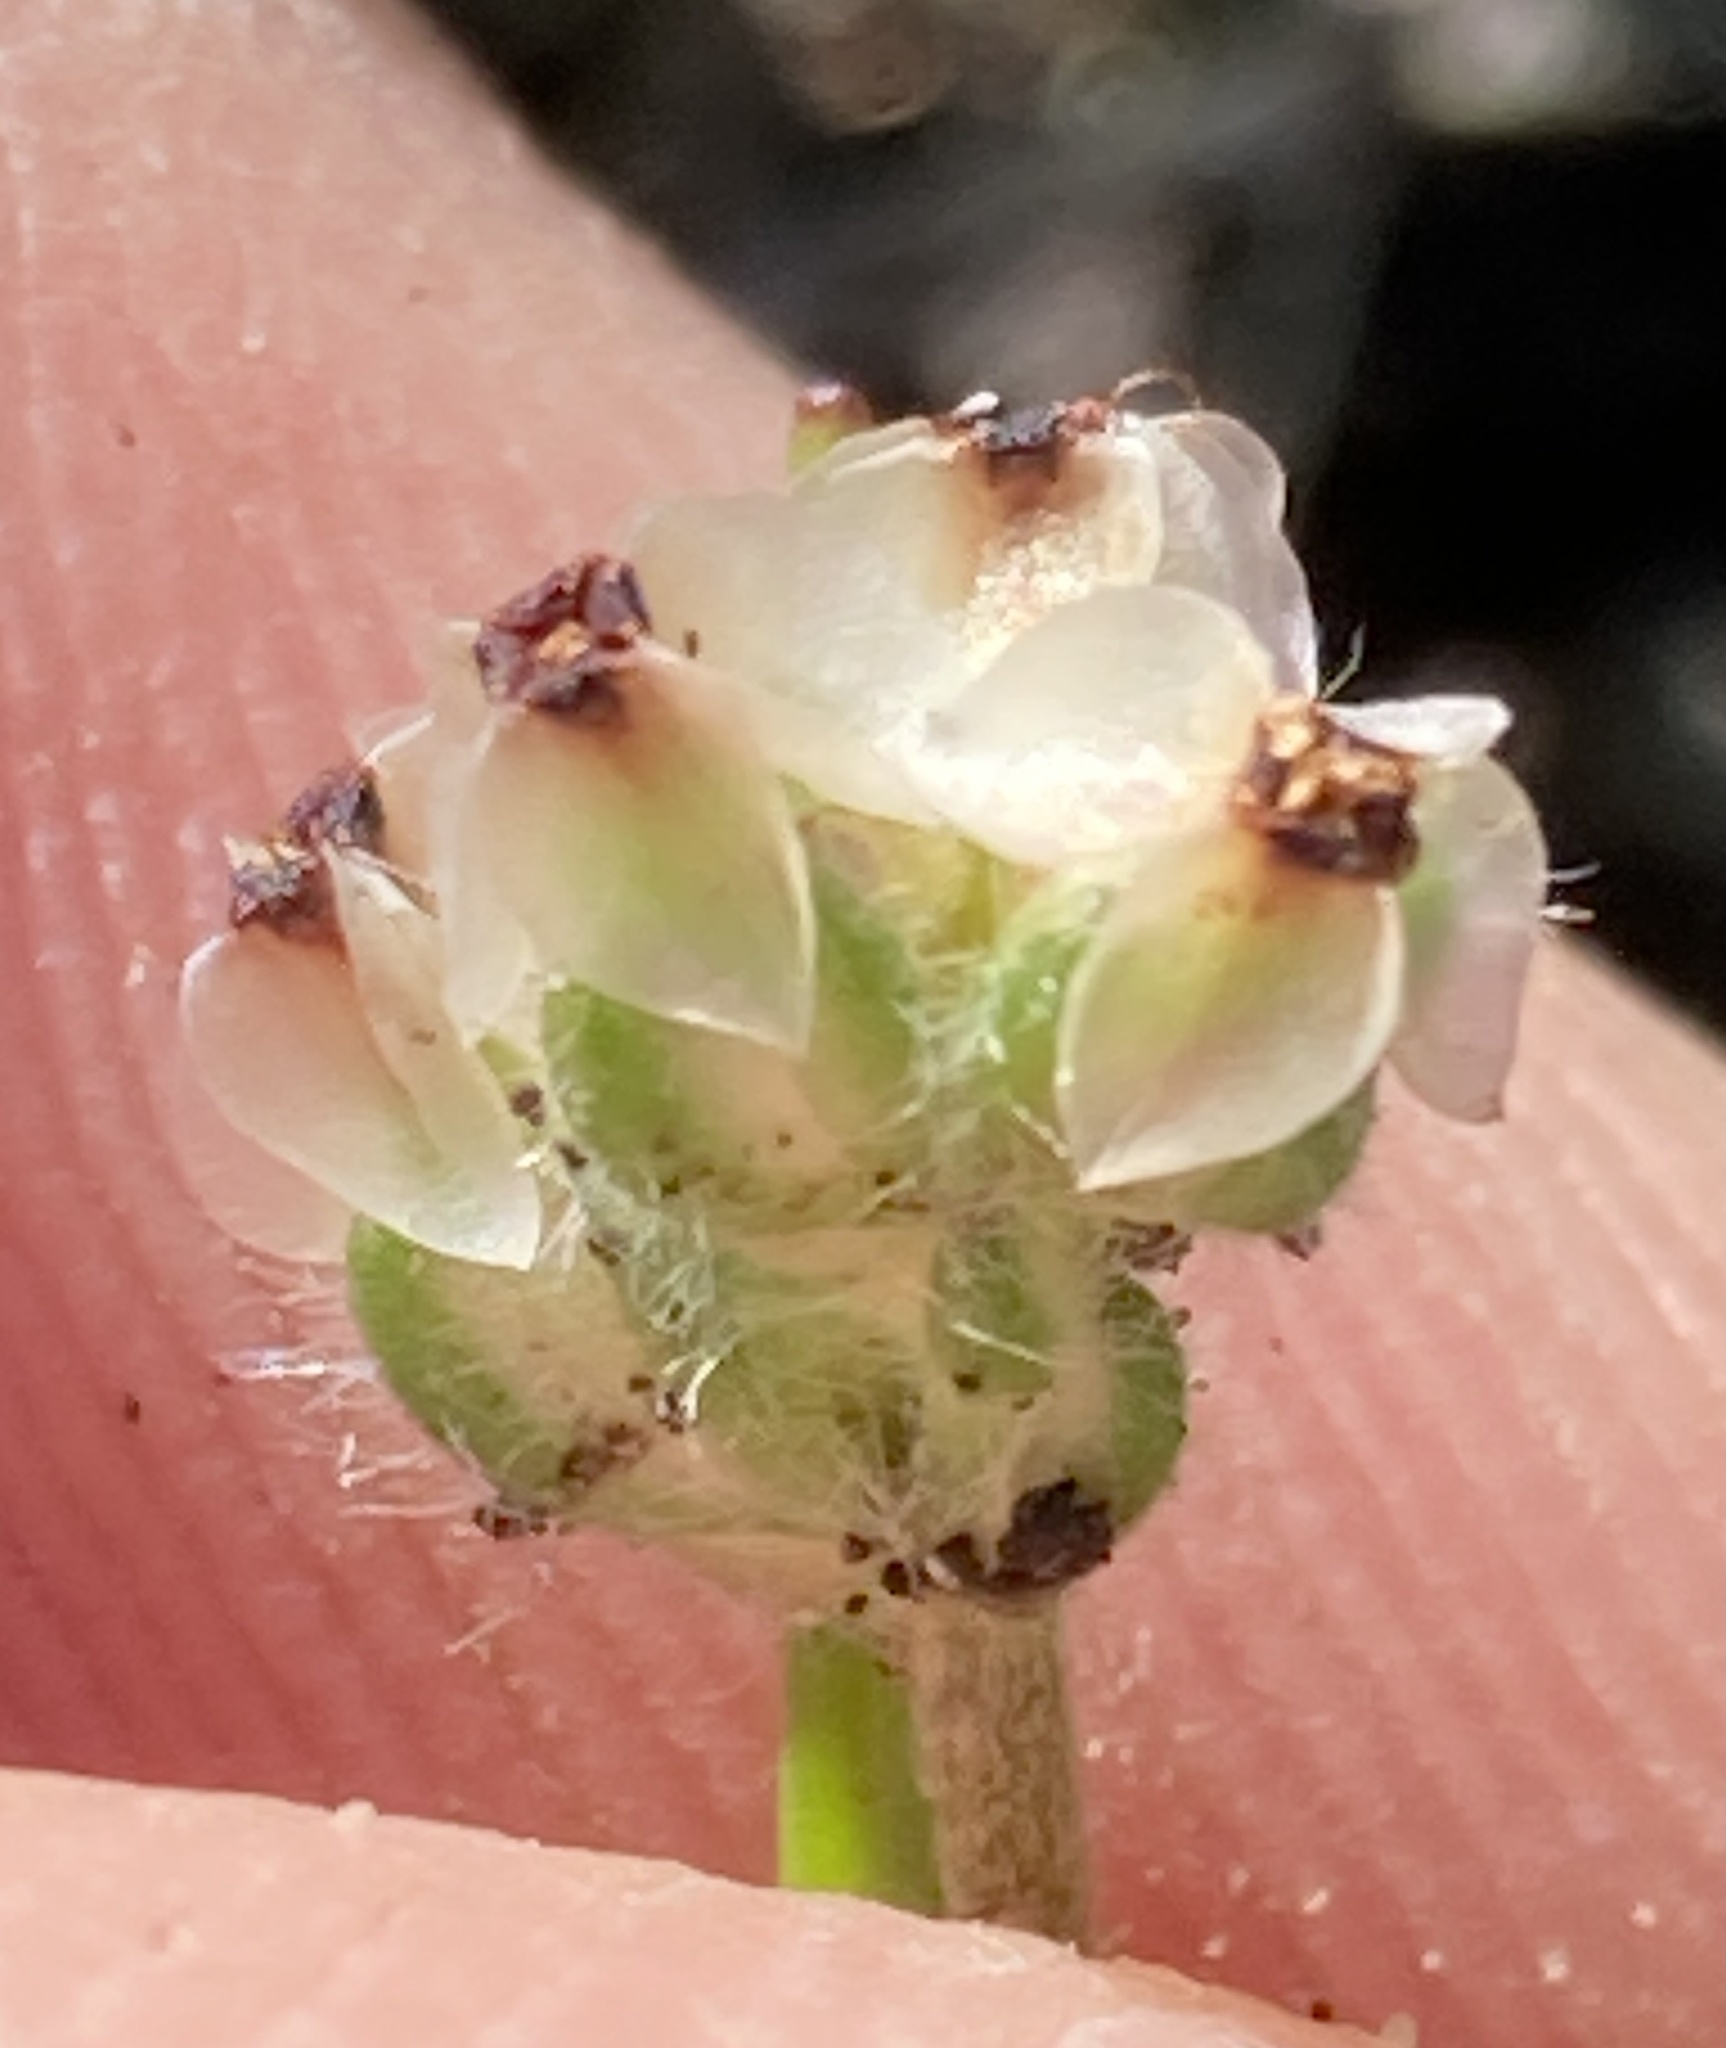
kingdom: Plantae
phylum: Tracheophyta
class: Magnoliopsida
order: Lamiales
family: Plantaginaceae
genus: Plantago
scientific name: Plantago erecta
